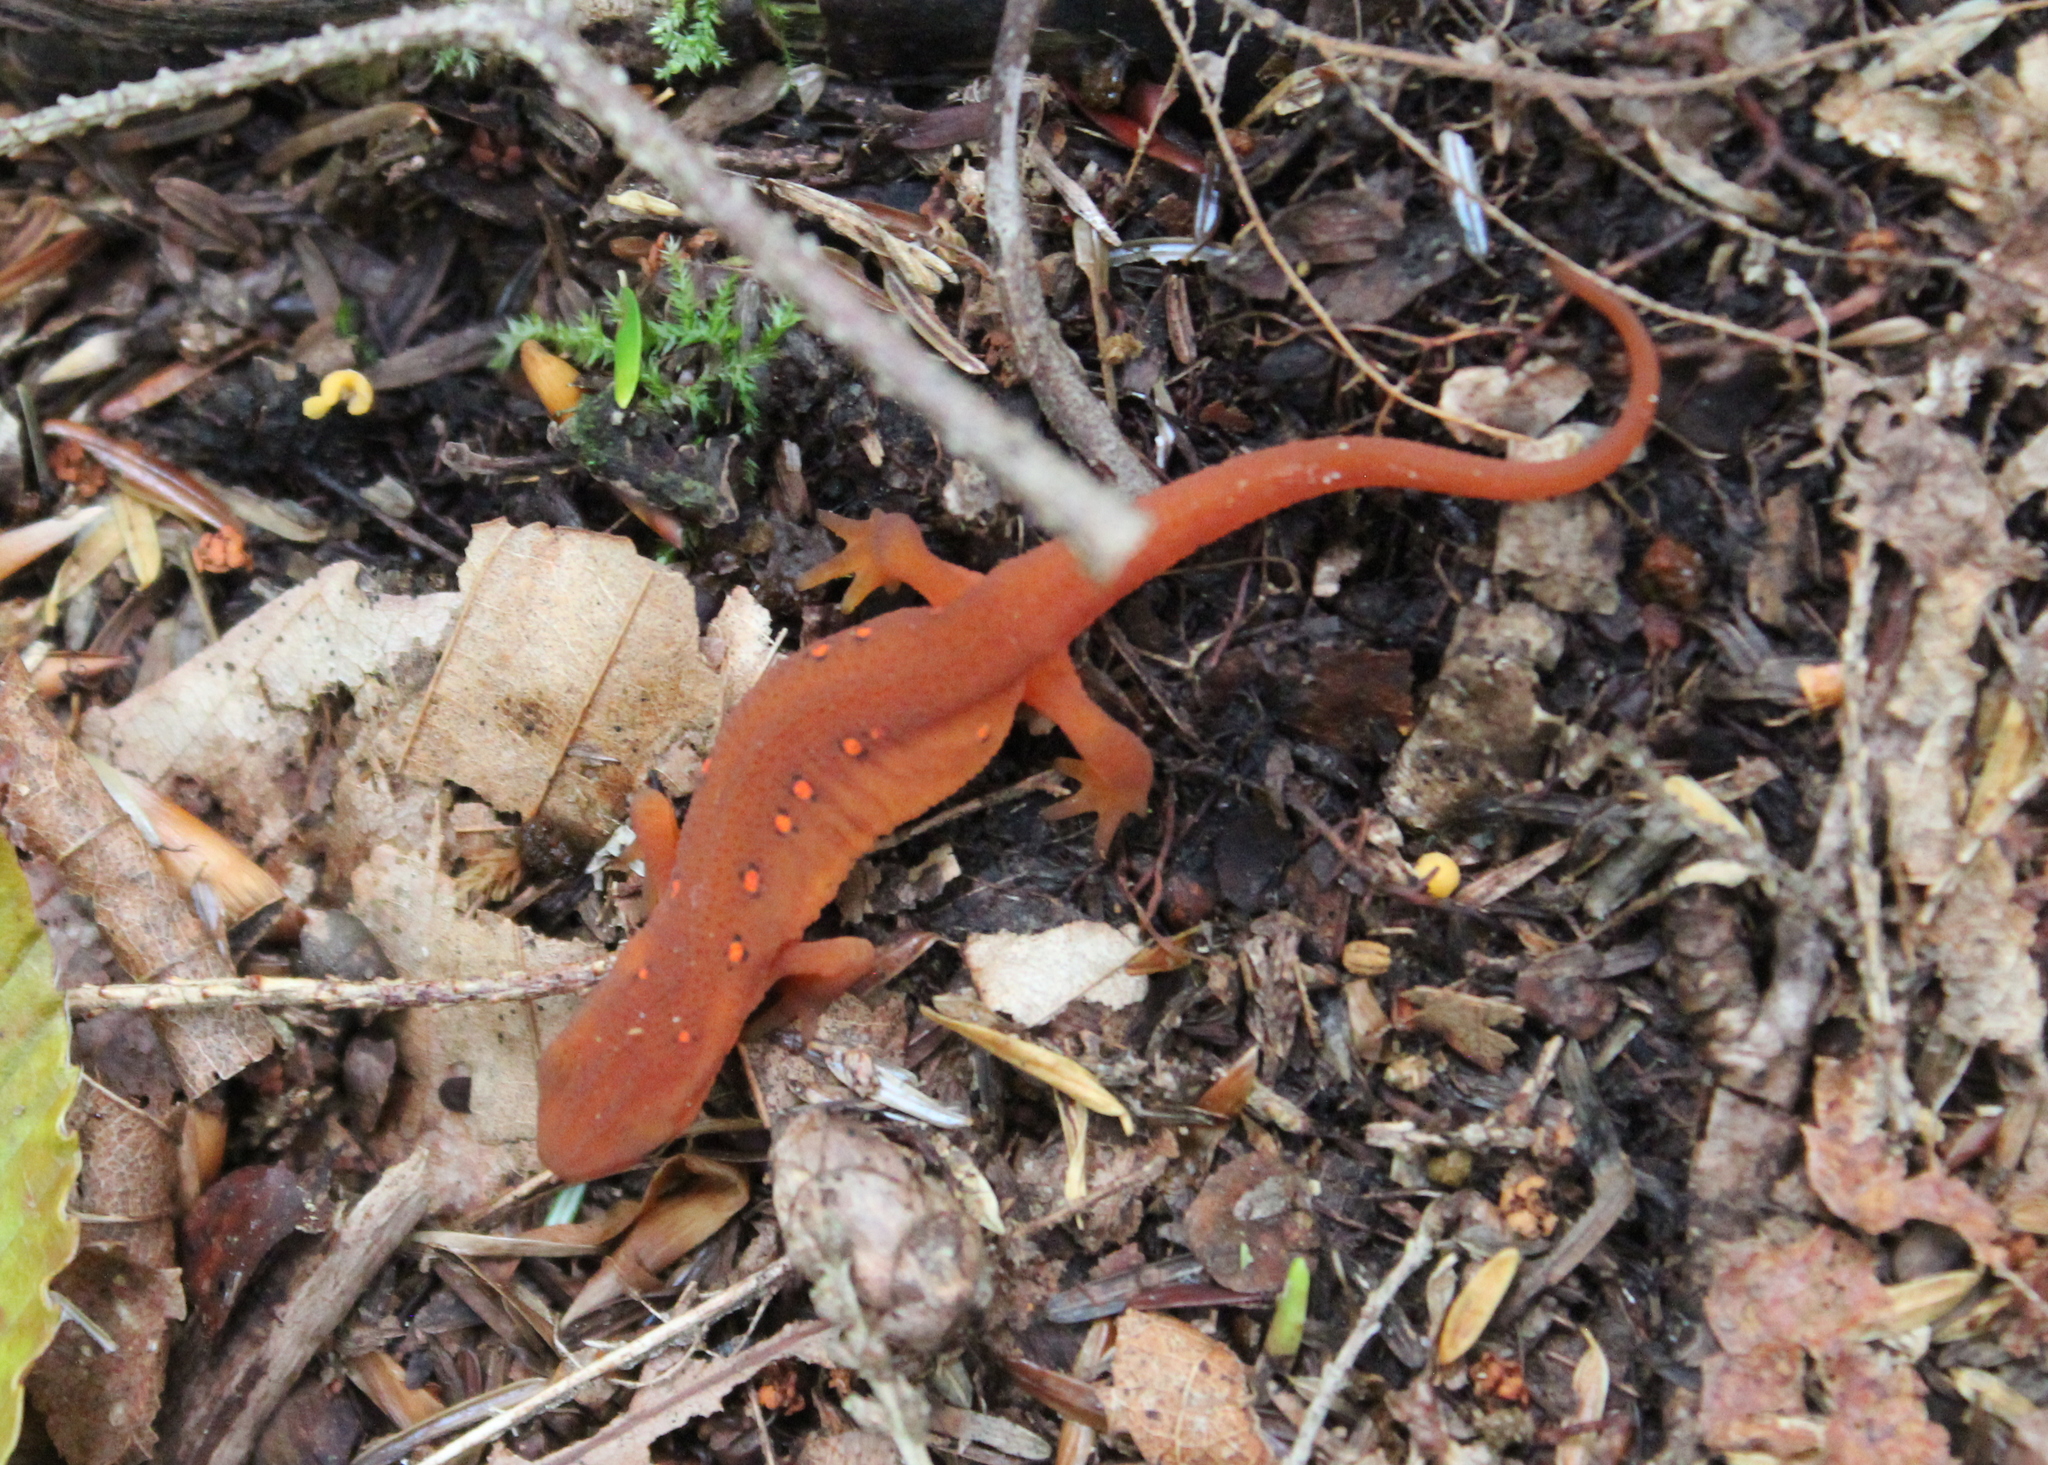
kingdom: Animalia
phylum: Chordata
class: Amphibia
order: Caudata
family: Salamandridae
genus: Notophthalmus
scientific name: Notophthalmus viridescens
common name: Eastern newt
